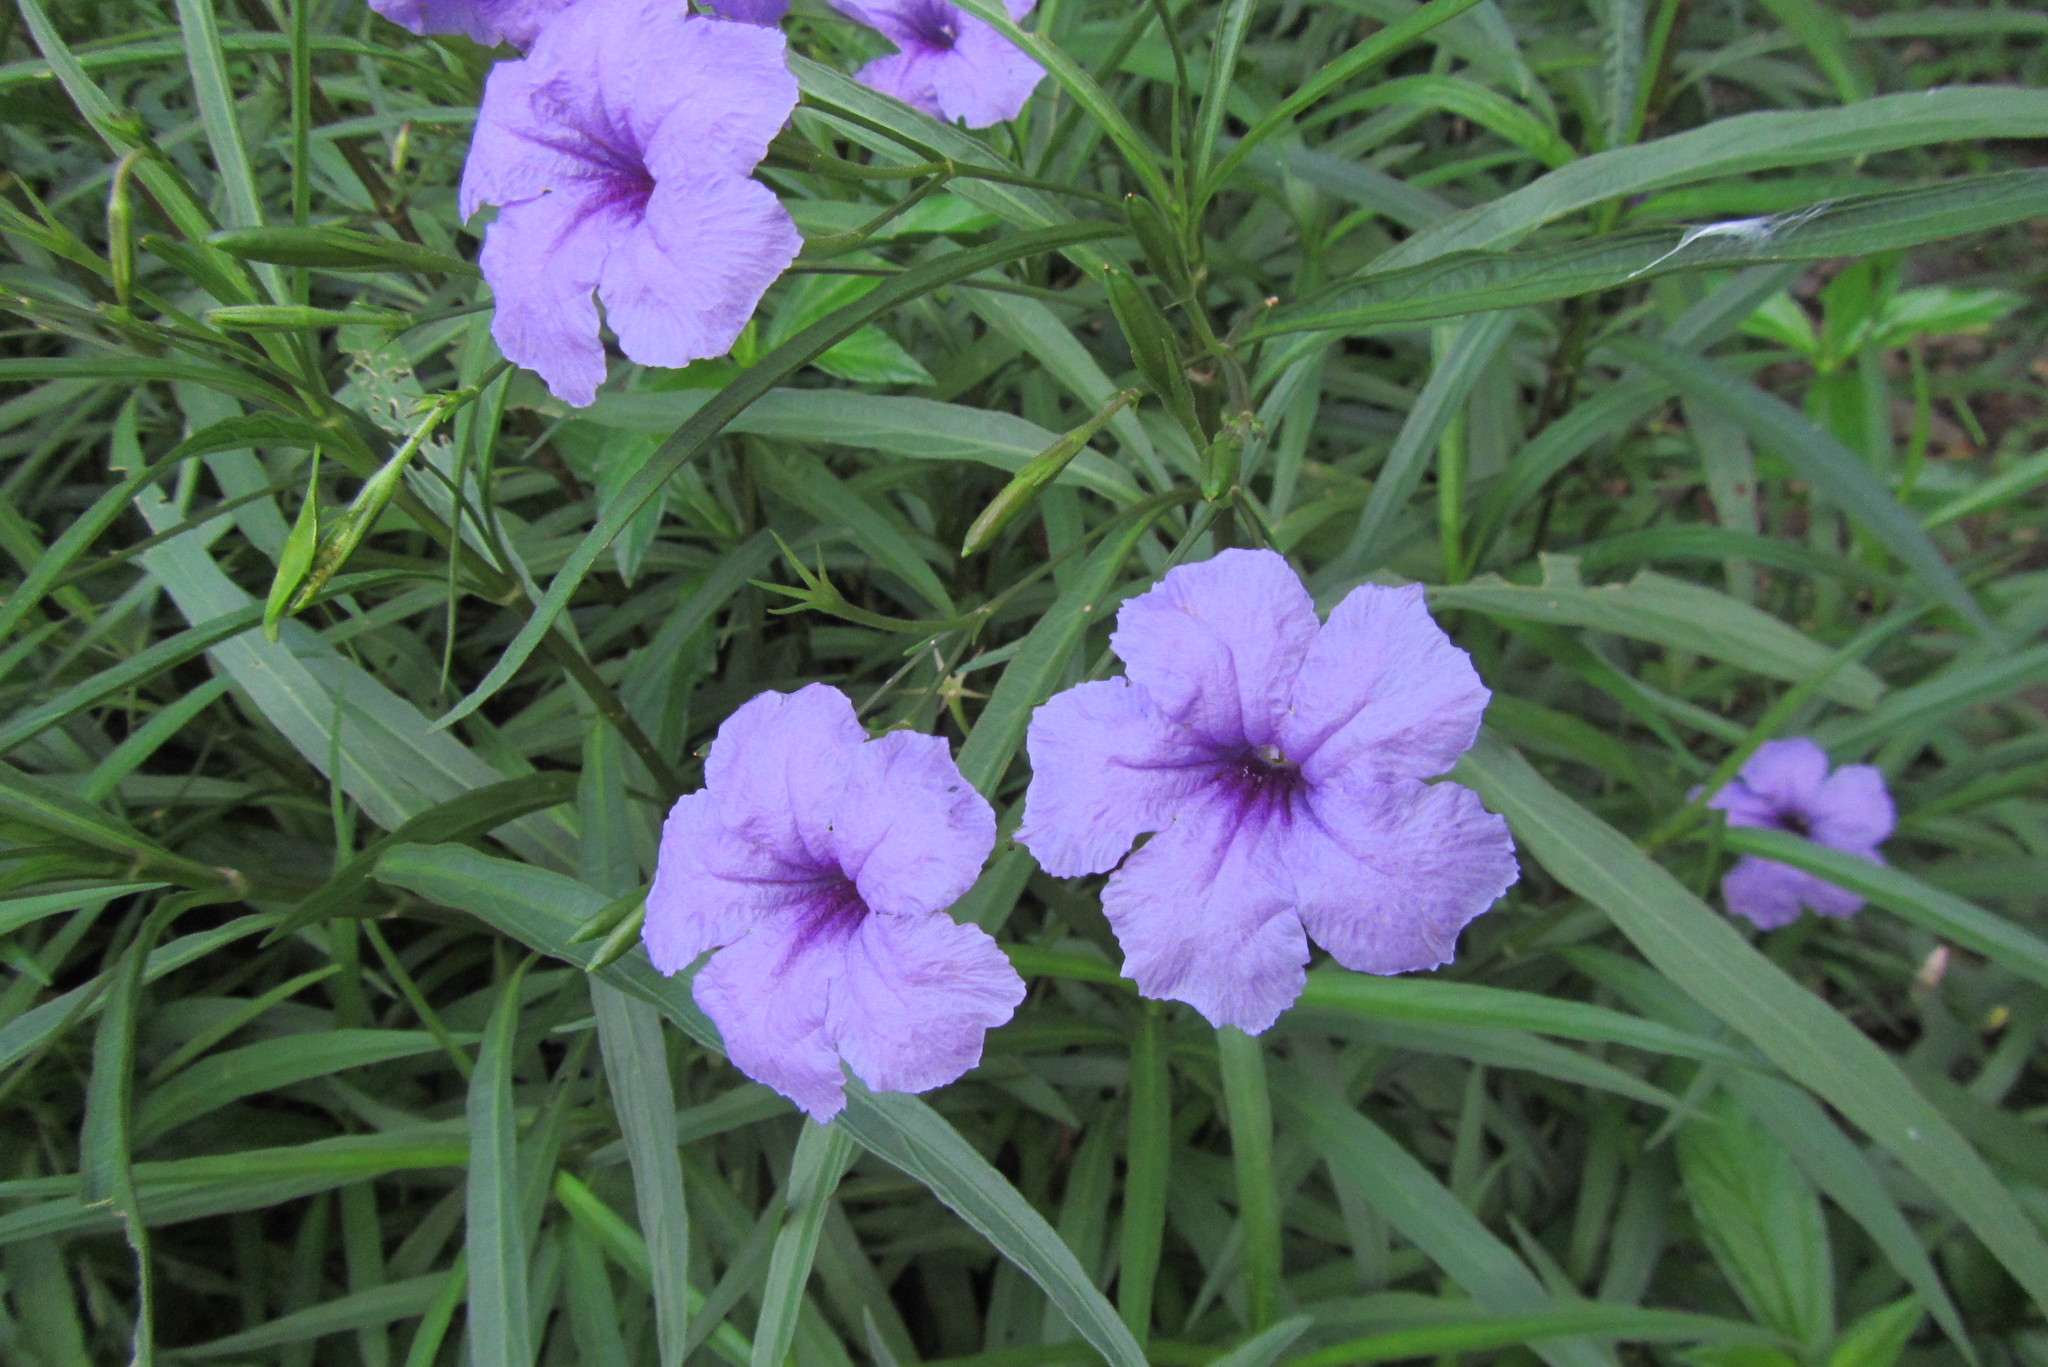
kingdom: Plantae
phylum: Tracheophyta
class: Magnoliopsida
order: Lamiales
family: Acanthaceae
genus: Ruellia
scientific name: Ruellia simplex
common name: Softseed wild petunia
